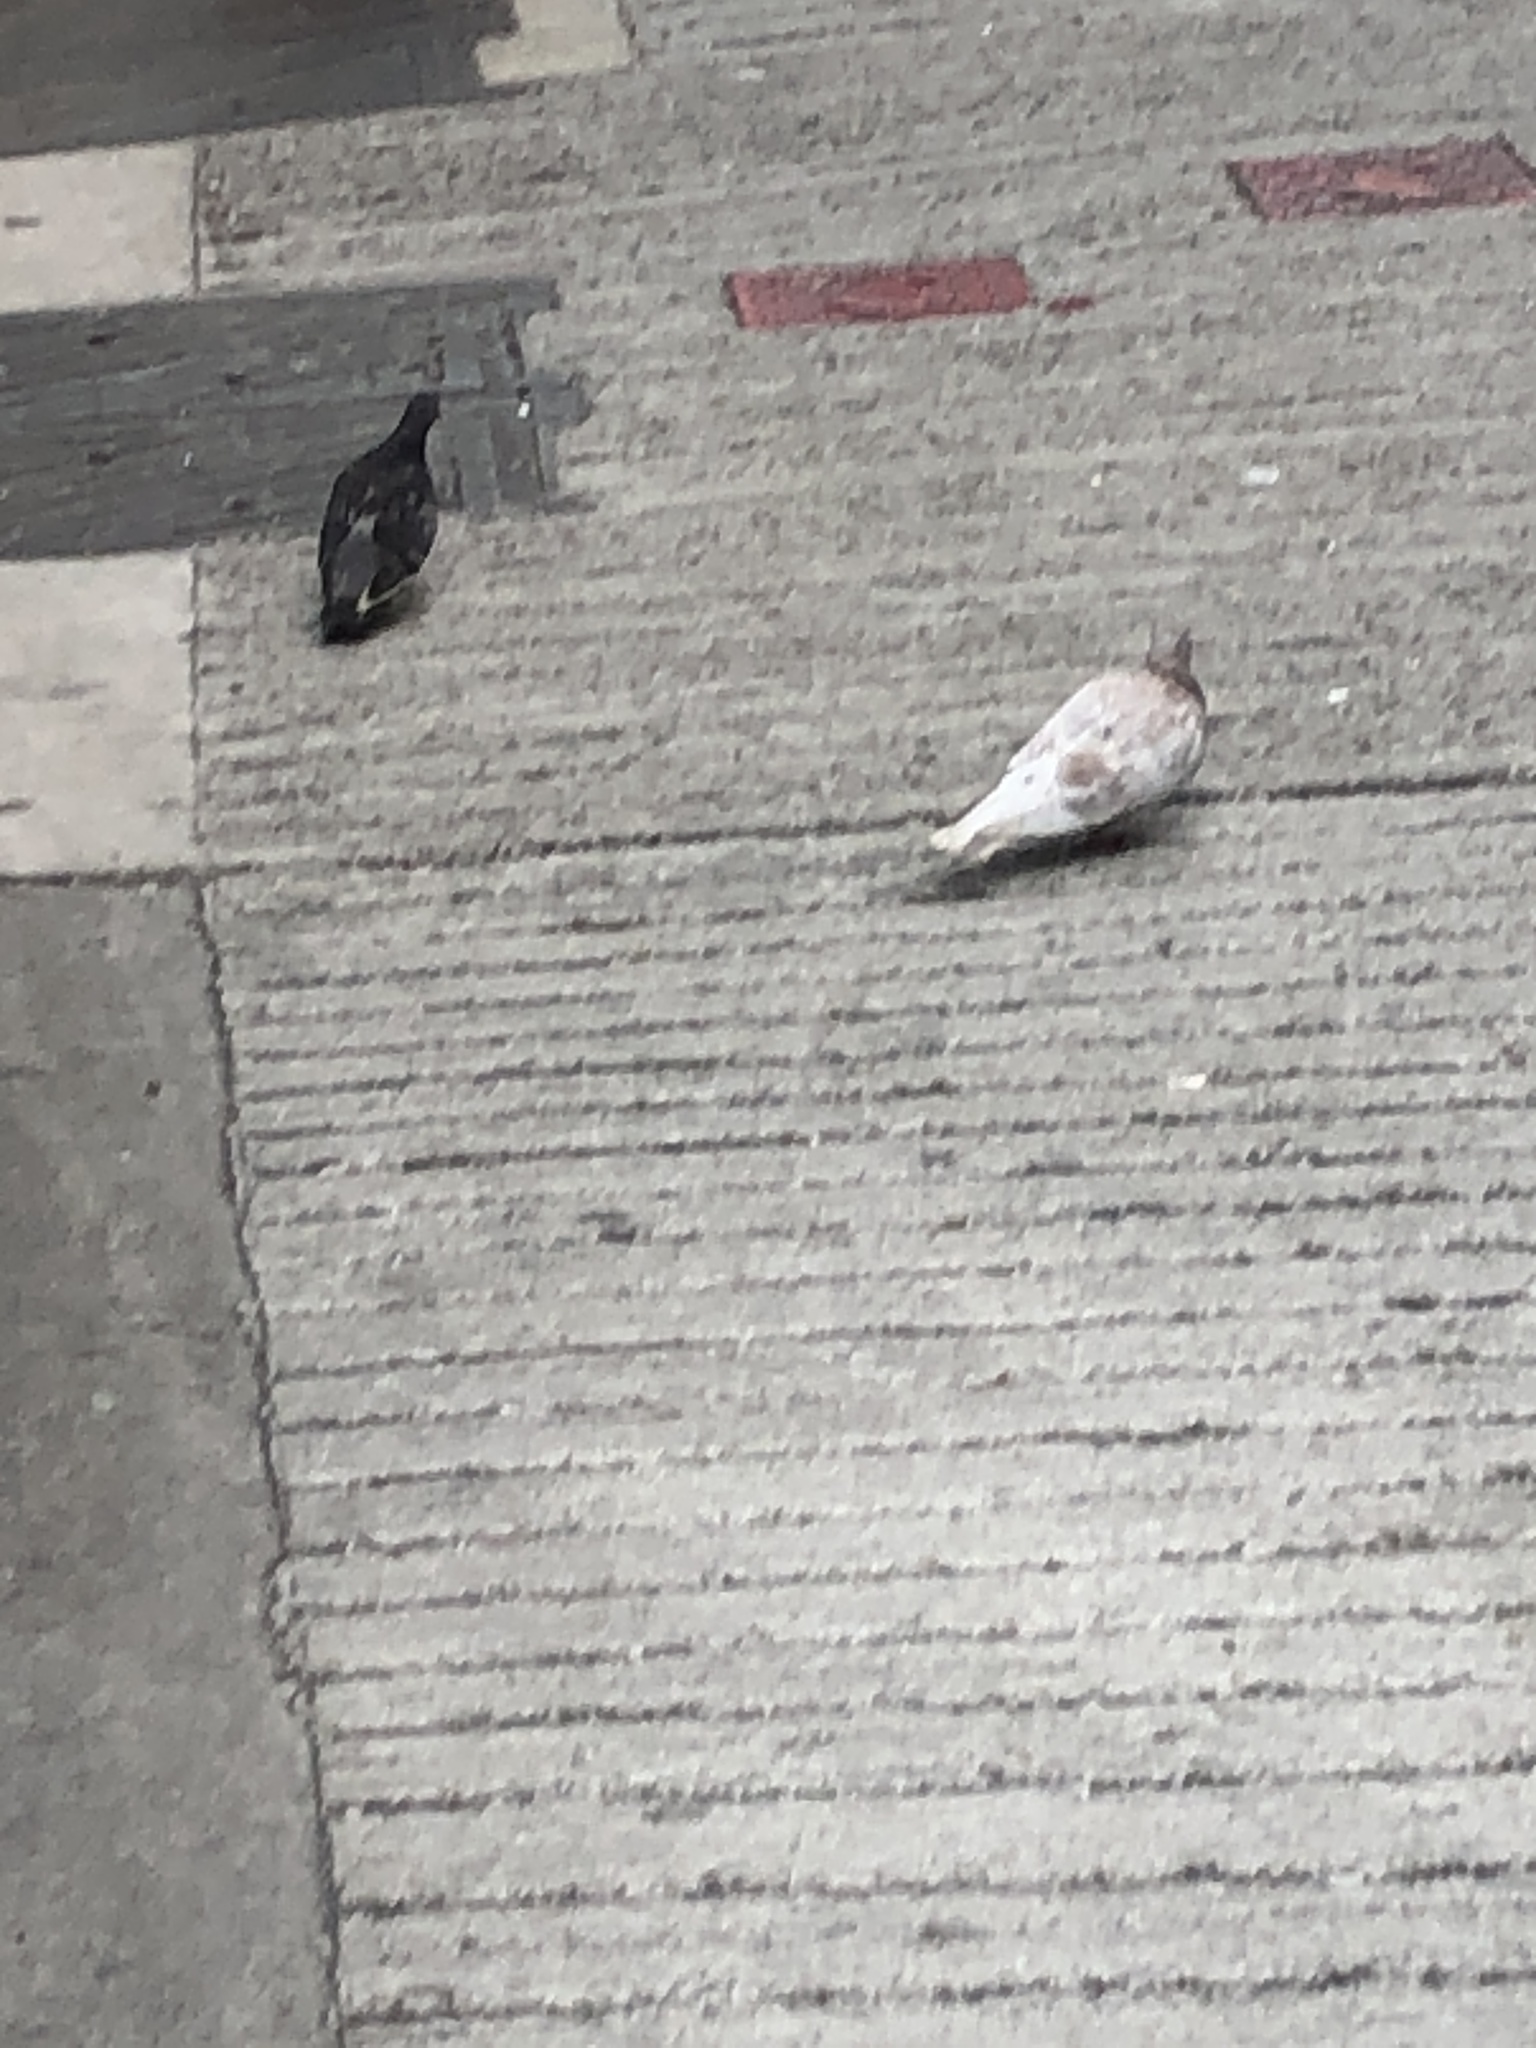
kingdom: Animalia
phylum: Chordata
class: Aves
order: Columbiformes
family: Columbidae
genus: Columba
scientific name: Columba livia
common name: Rock pigeon
